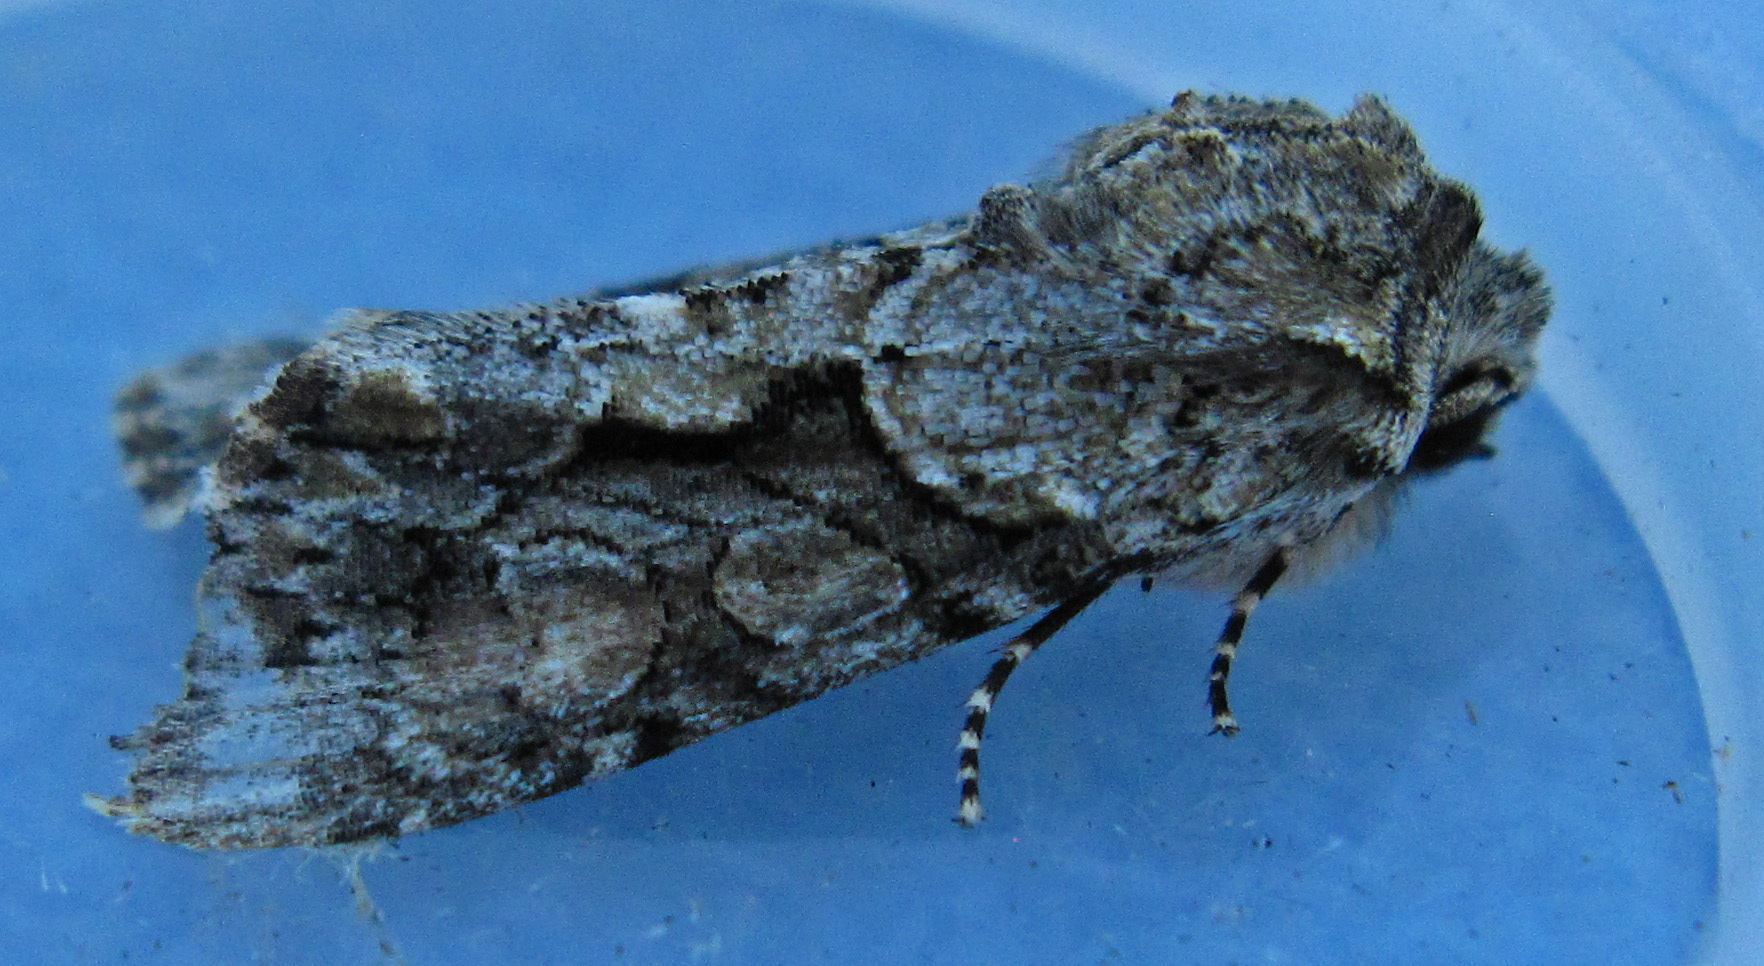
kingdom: Animalia
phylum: Arthropoda
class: Insecta
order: Lepidoptera
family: Noctuidae
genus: Achatia
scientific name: Achatia distincta
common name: Distinct quaker
